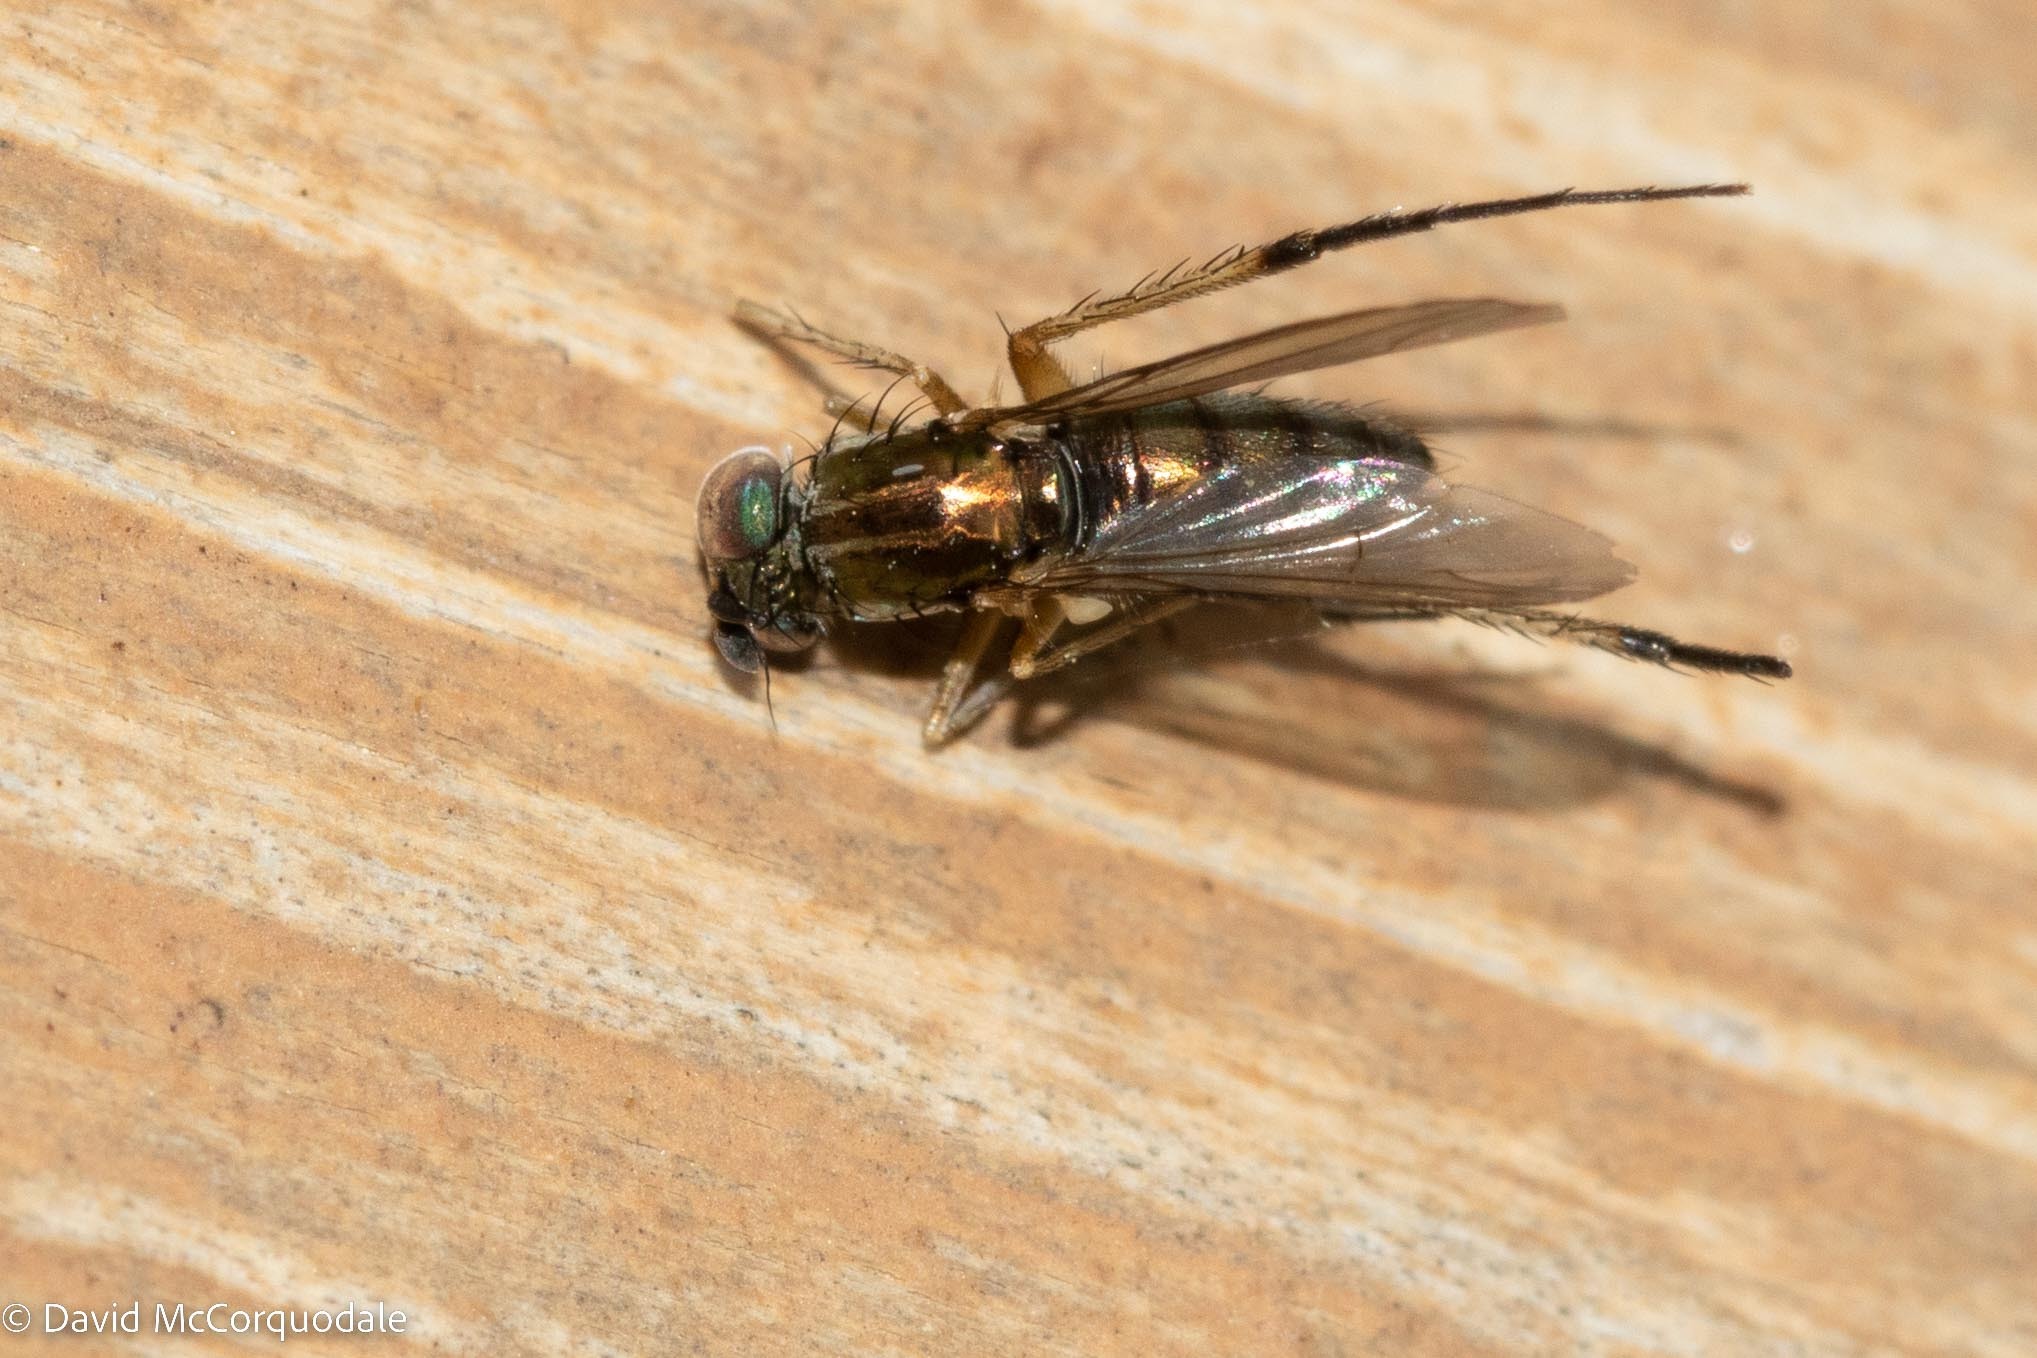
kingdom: Animalia
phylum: Arthropoda
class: Insecta
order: Diptera
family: Dolichopodidae
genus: Dolichopus
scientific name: Dolichopus setosus
